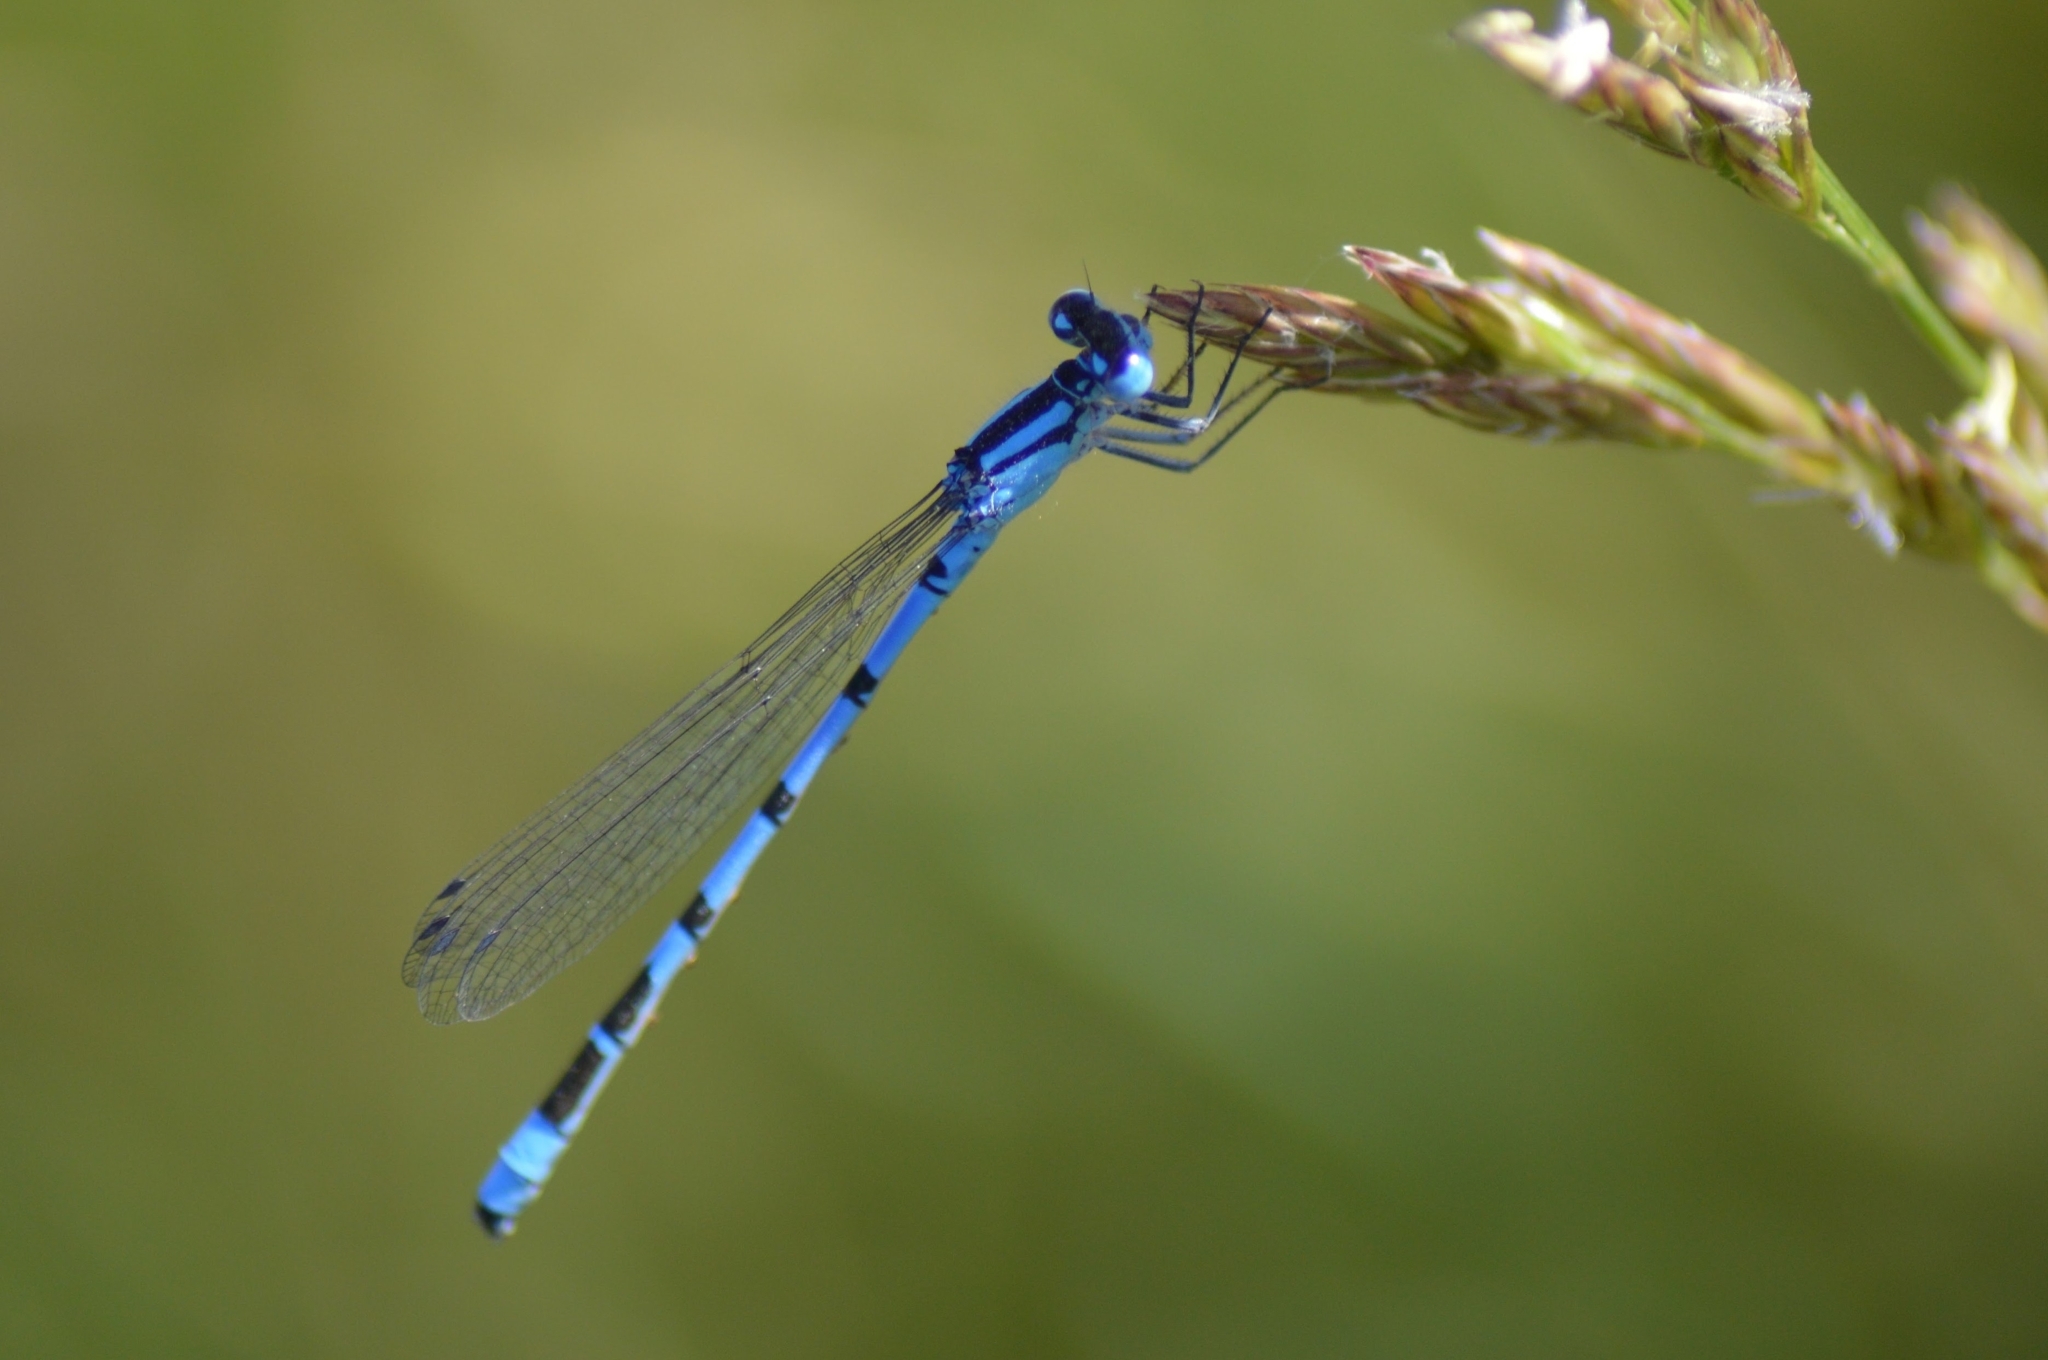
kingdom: Animalia
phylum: Arthropoda
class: Insecta
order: Odonata
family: Coenagrionidae
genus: Enallagma
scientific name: Enallagma cyathigerum
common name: Common blue damselfly
